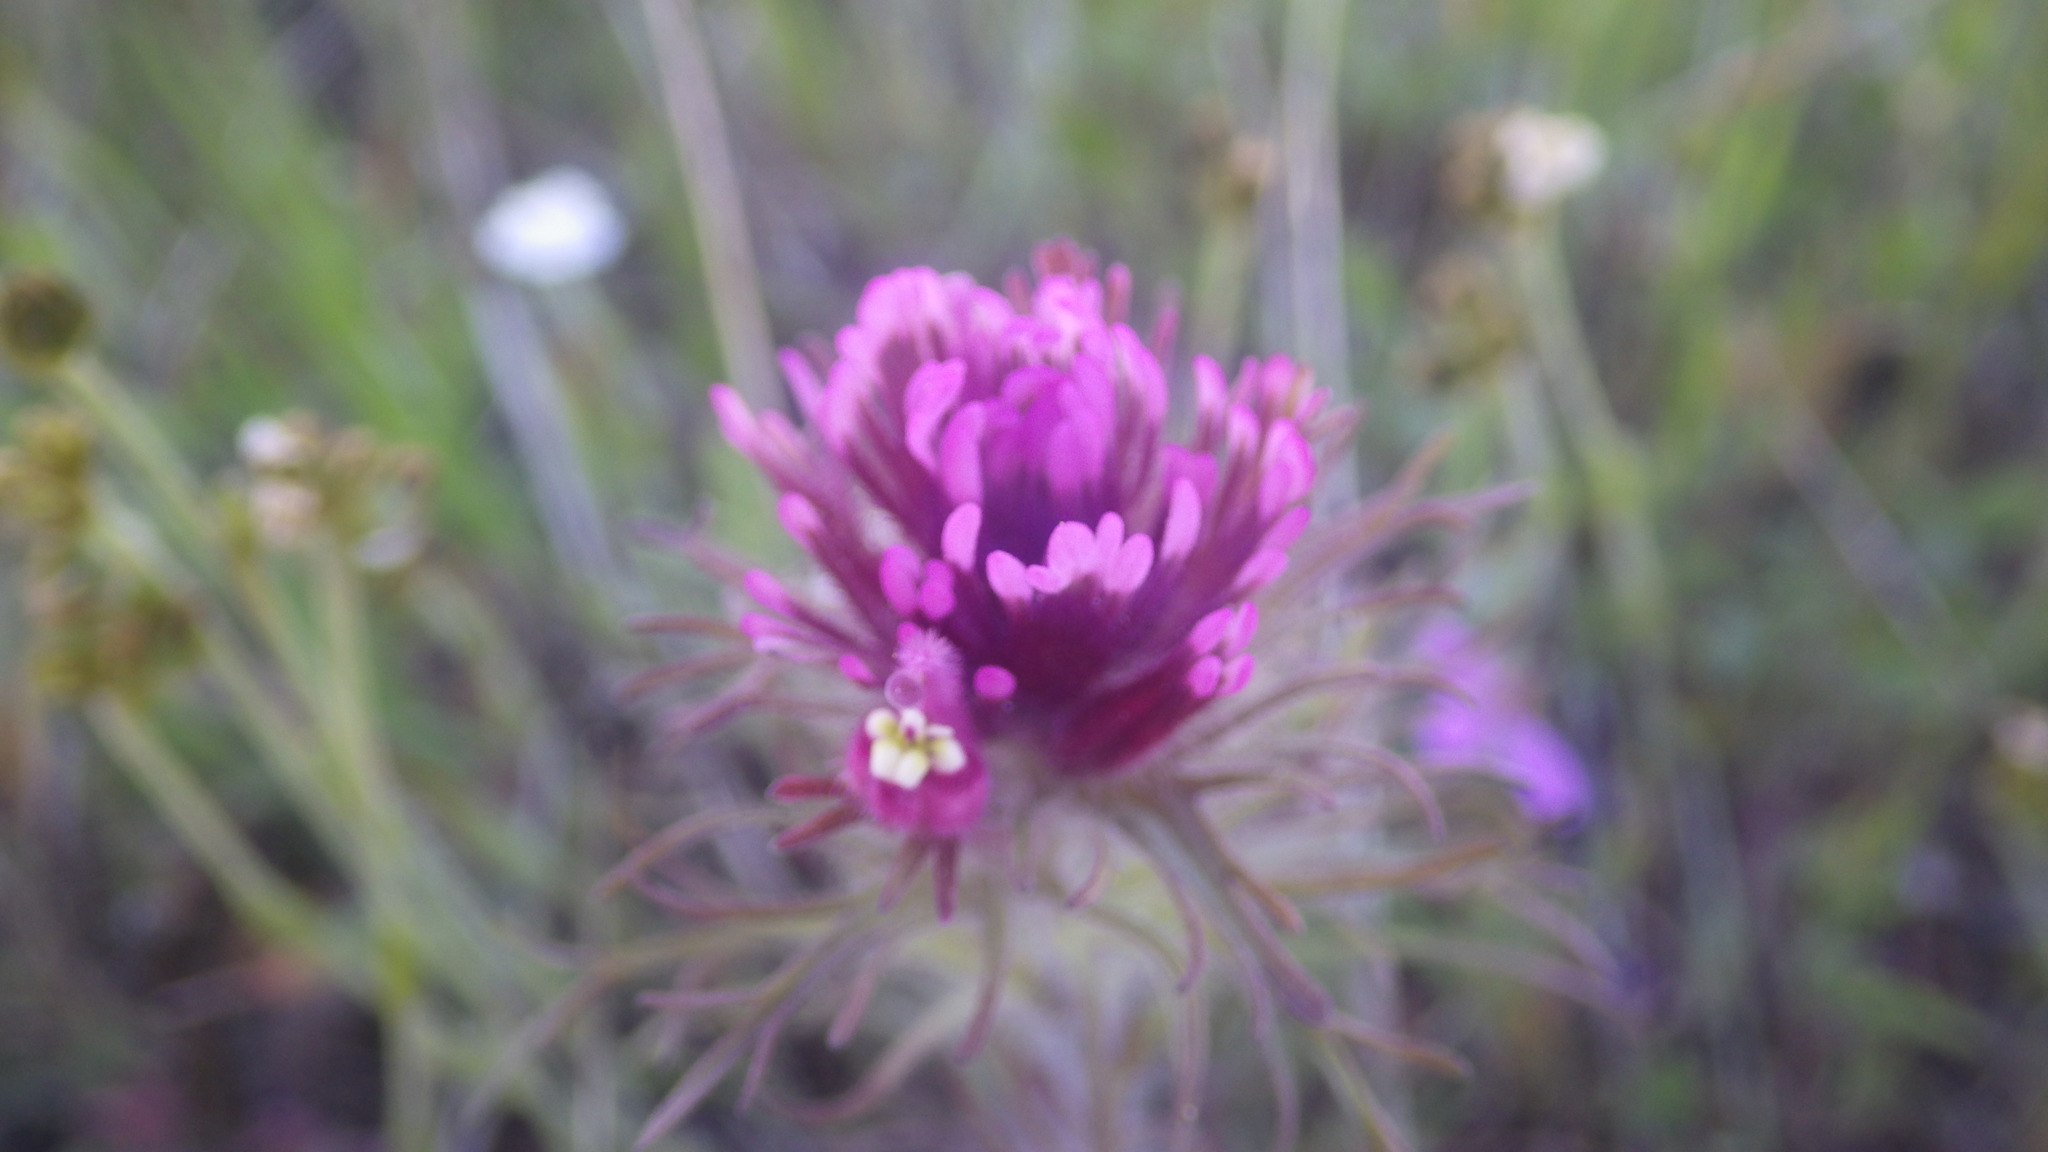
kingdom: Plantae
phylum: Tracheophyta
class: Magnoliopsida
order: Lamiales
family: Orobanchaceae
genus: Castilleja
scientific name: Castilleja exserta
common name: Purple owl-clover
